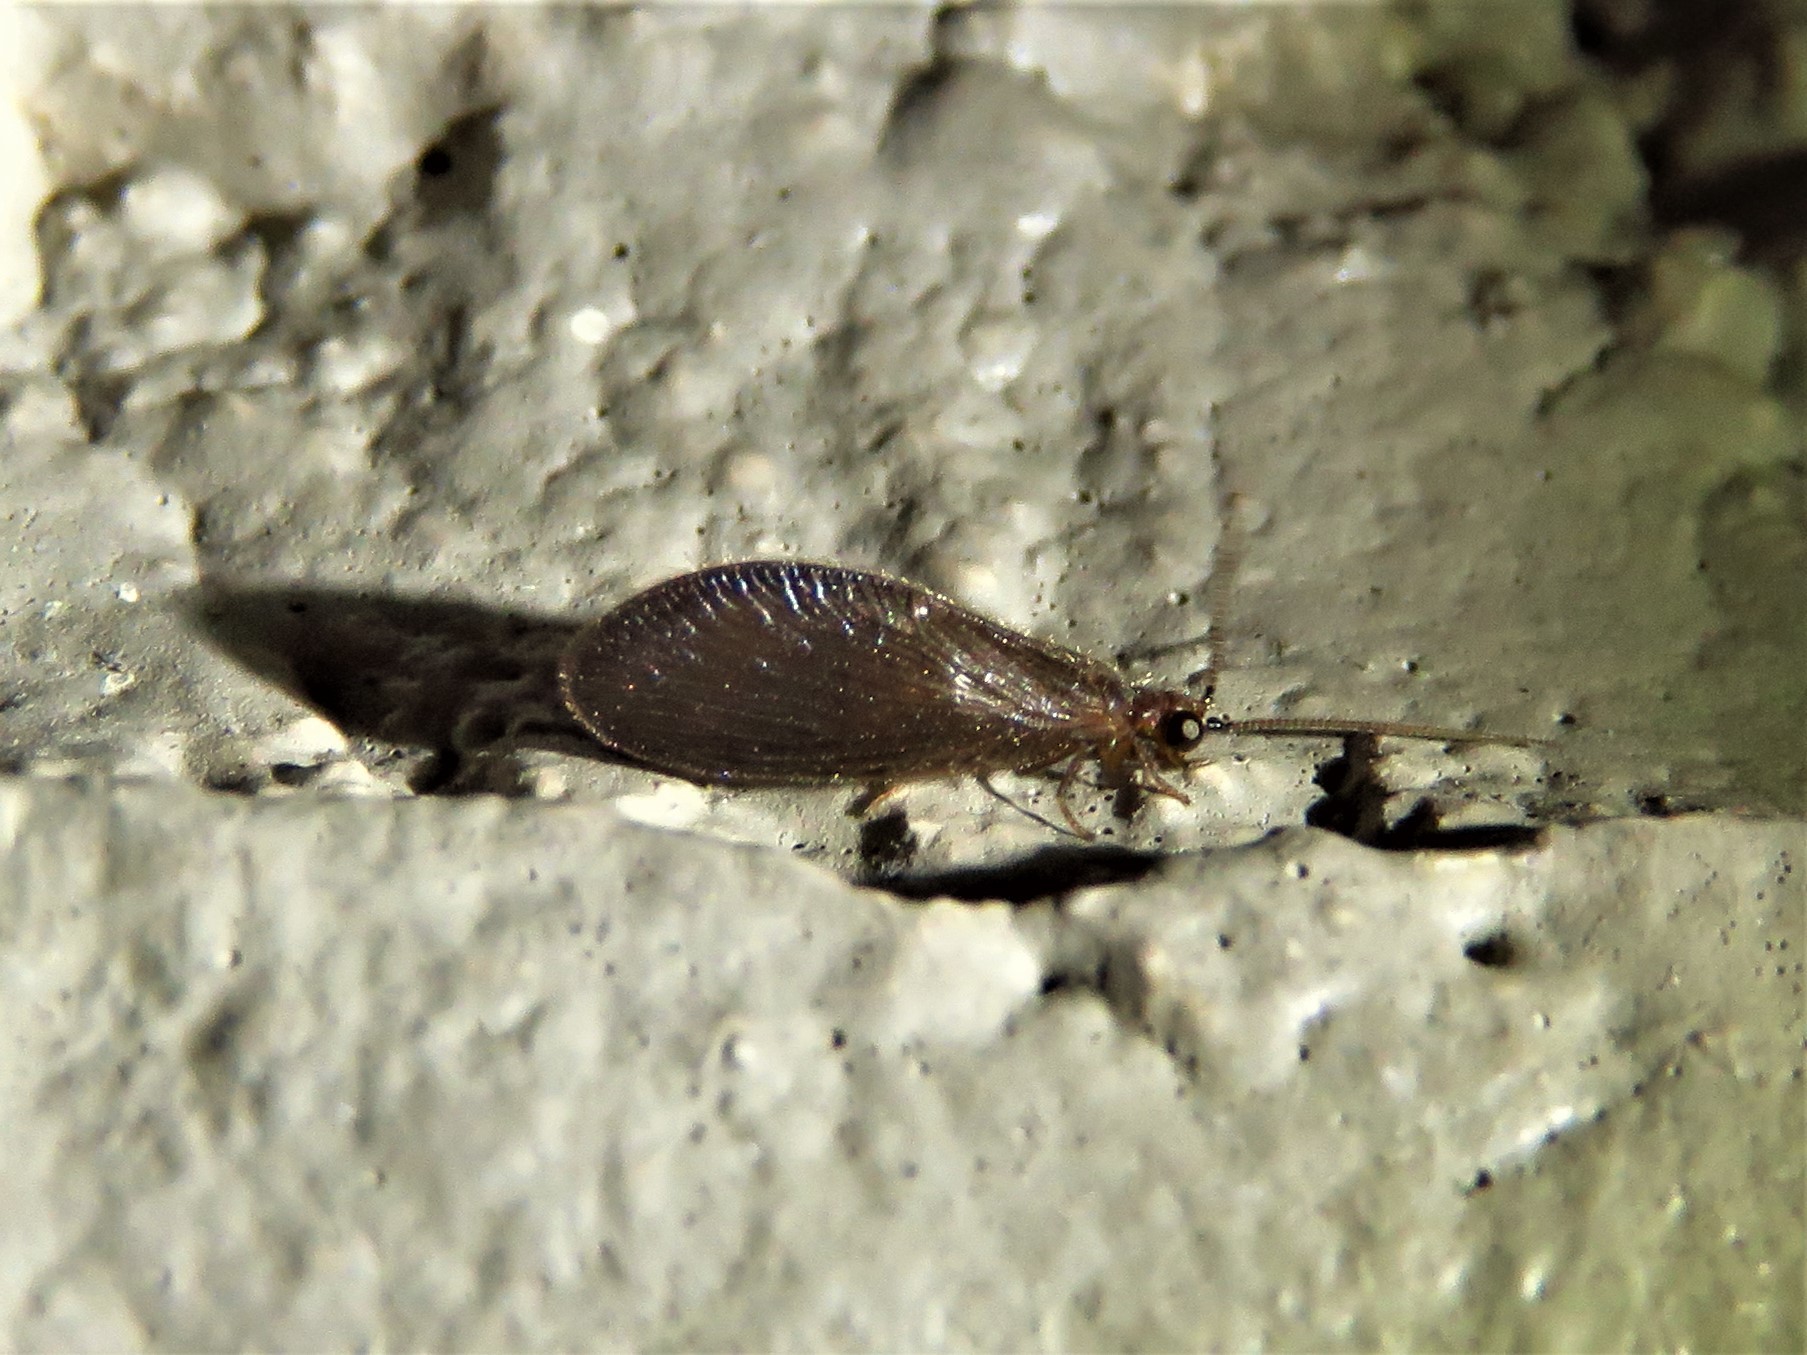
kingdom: Animalia
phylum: Arthropoda
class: Insecta
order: Neuroptera
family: Sisyridae
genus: Sisyra
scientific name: Sisyra vicaria
